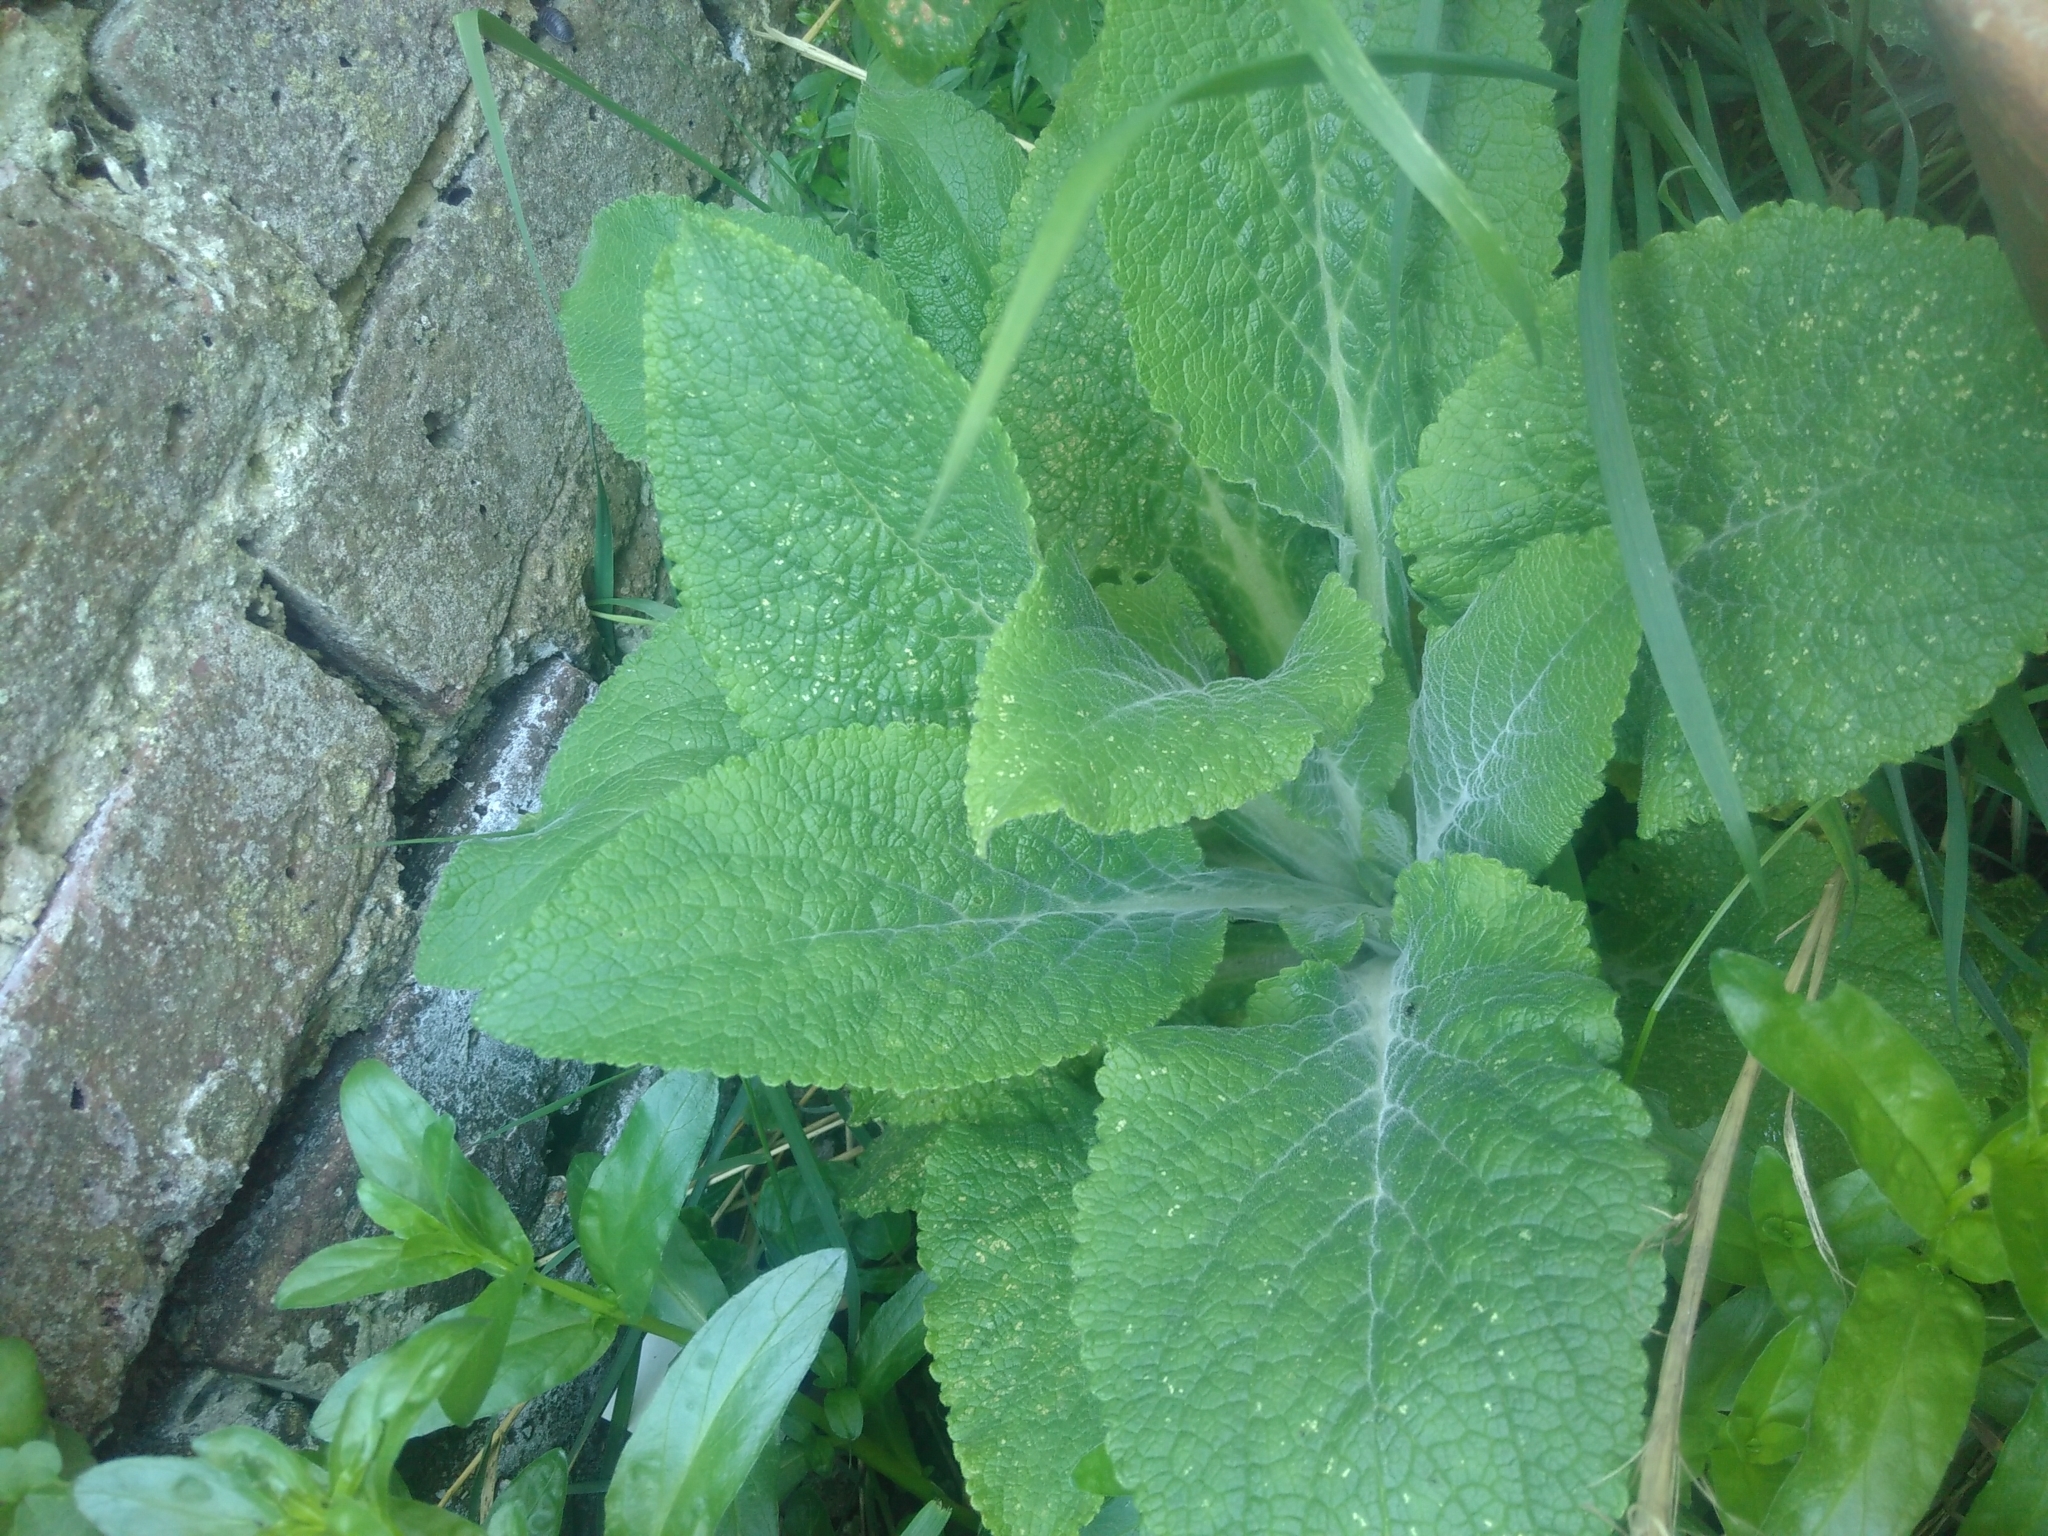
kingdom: Plantae
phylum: Tracheophyta
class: Magnoliopsida
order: Lamiales
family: Plantaginaceae
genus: Digitalis
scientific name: Digitalis purpurea
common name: Foxglove
